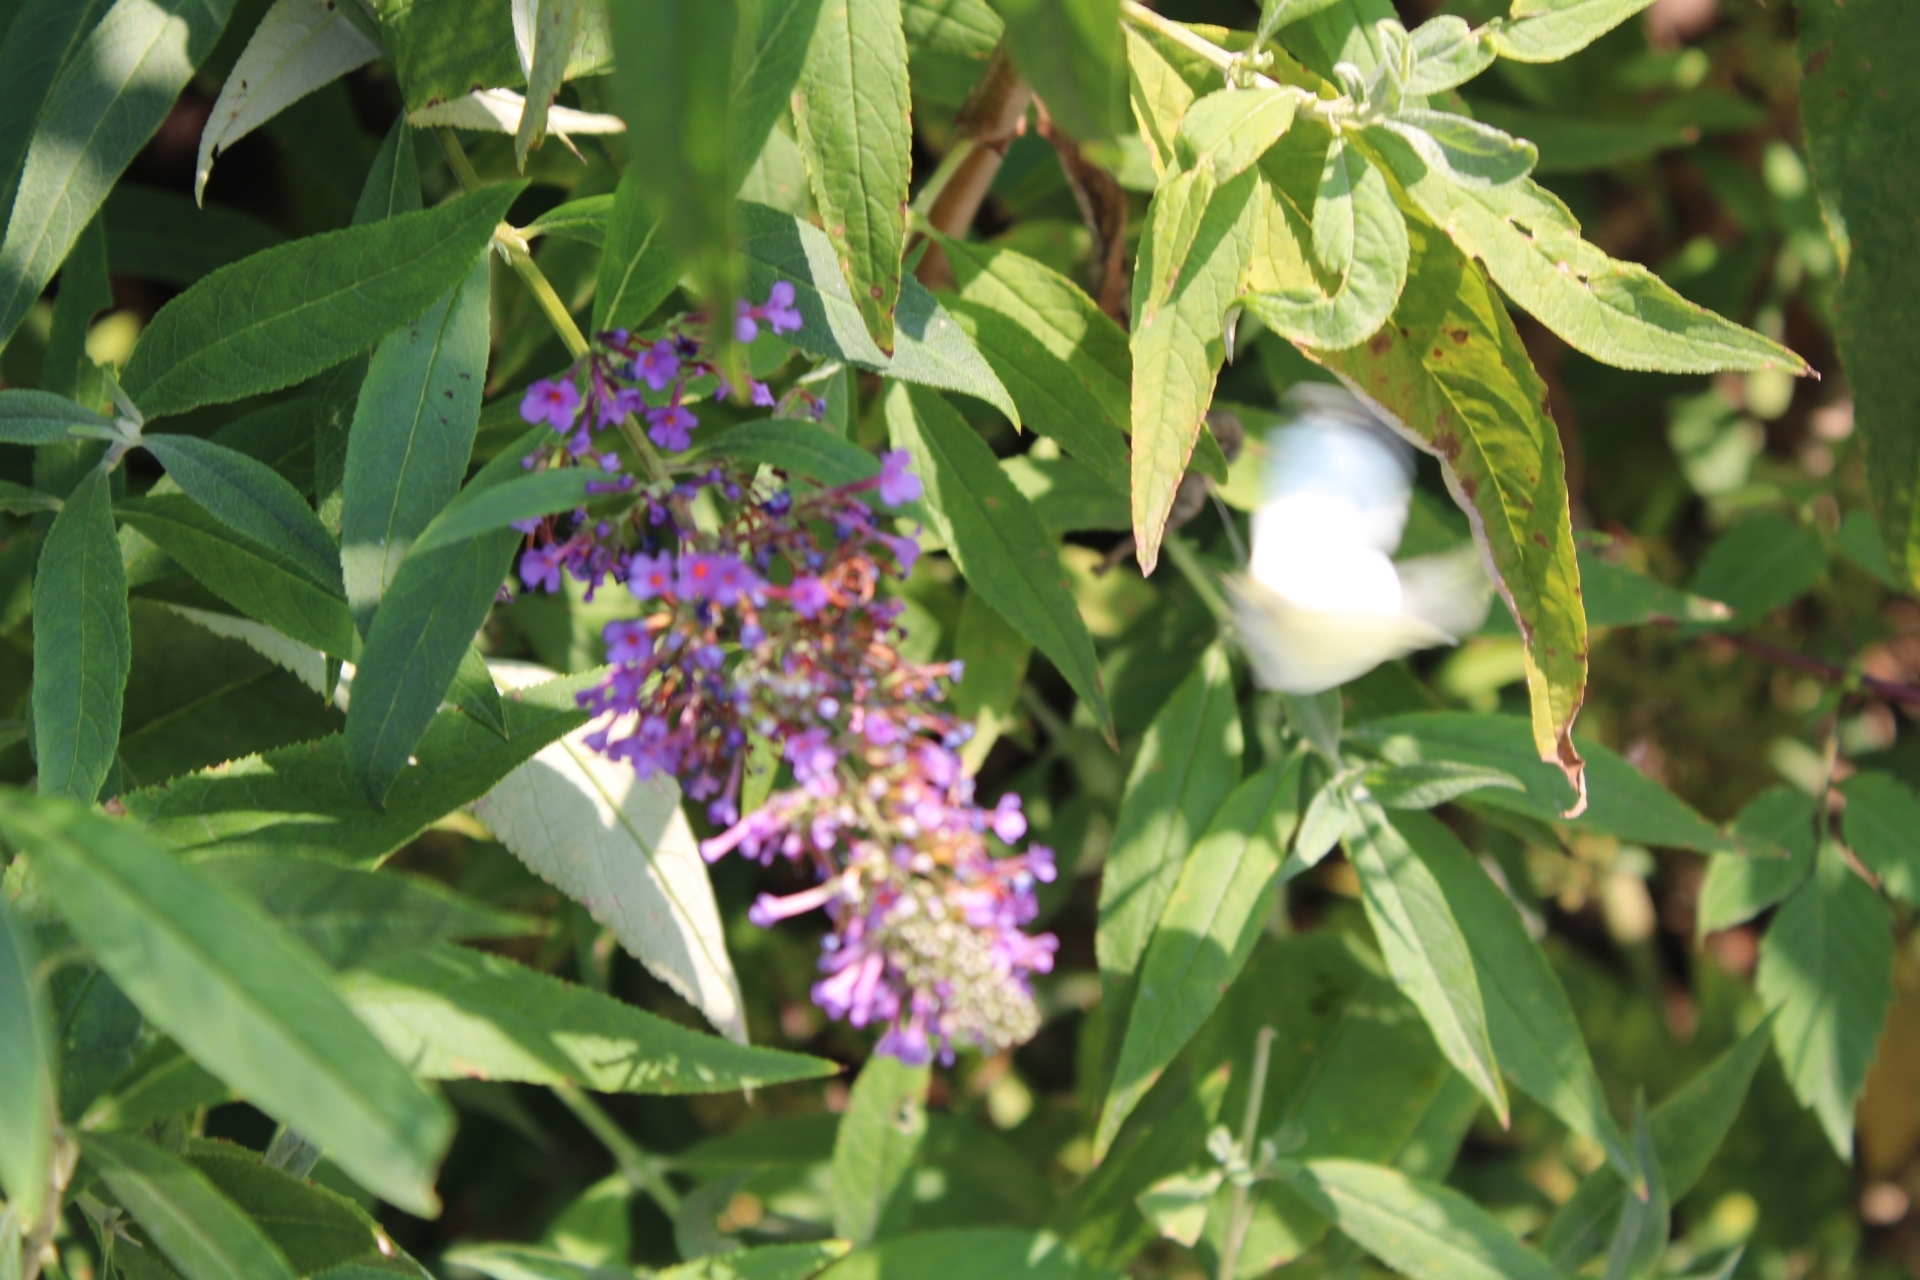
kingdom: Animalia
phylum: Arthropoda
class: Insecta
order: Lepidoptera
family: Pieridae
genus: Pieris
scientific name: Pieris rapae
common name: Small white
